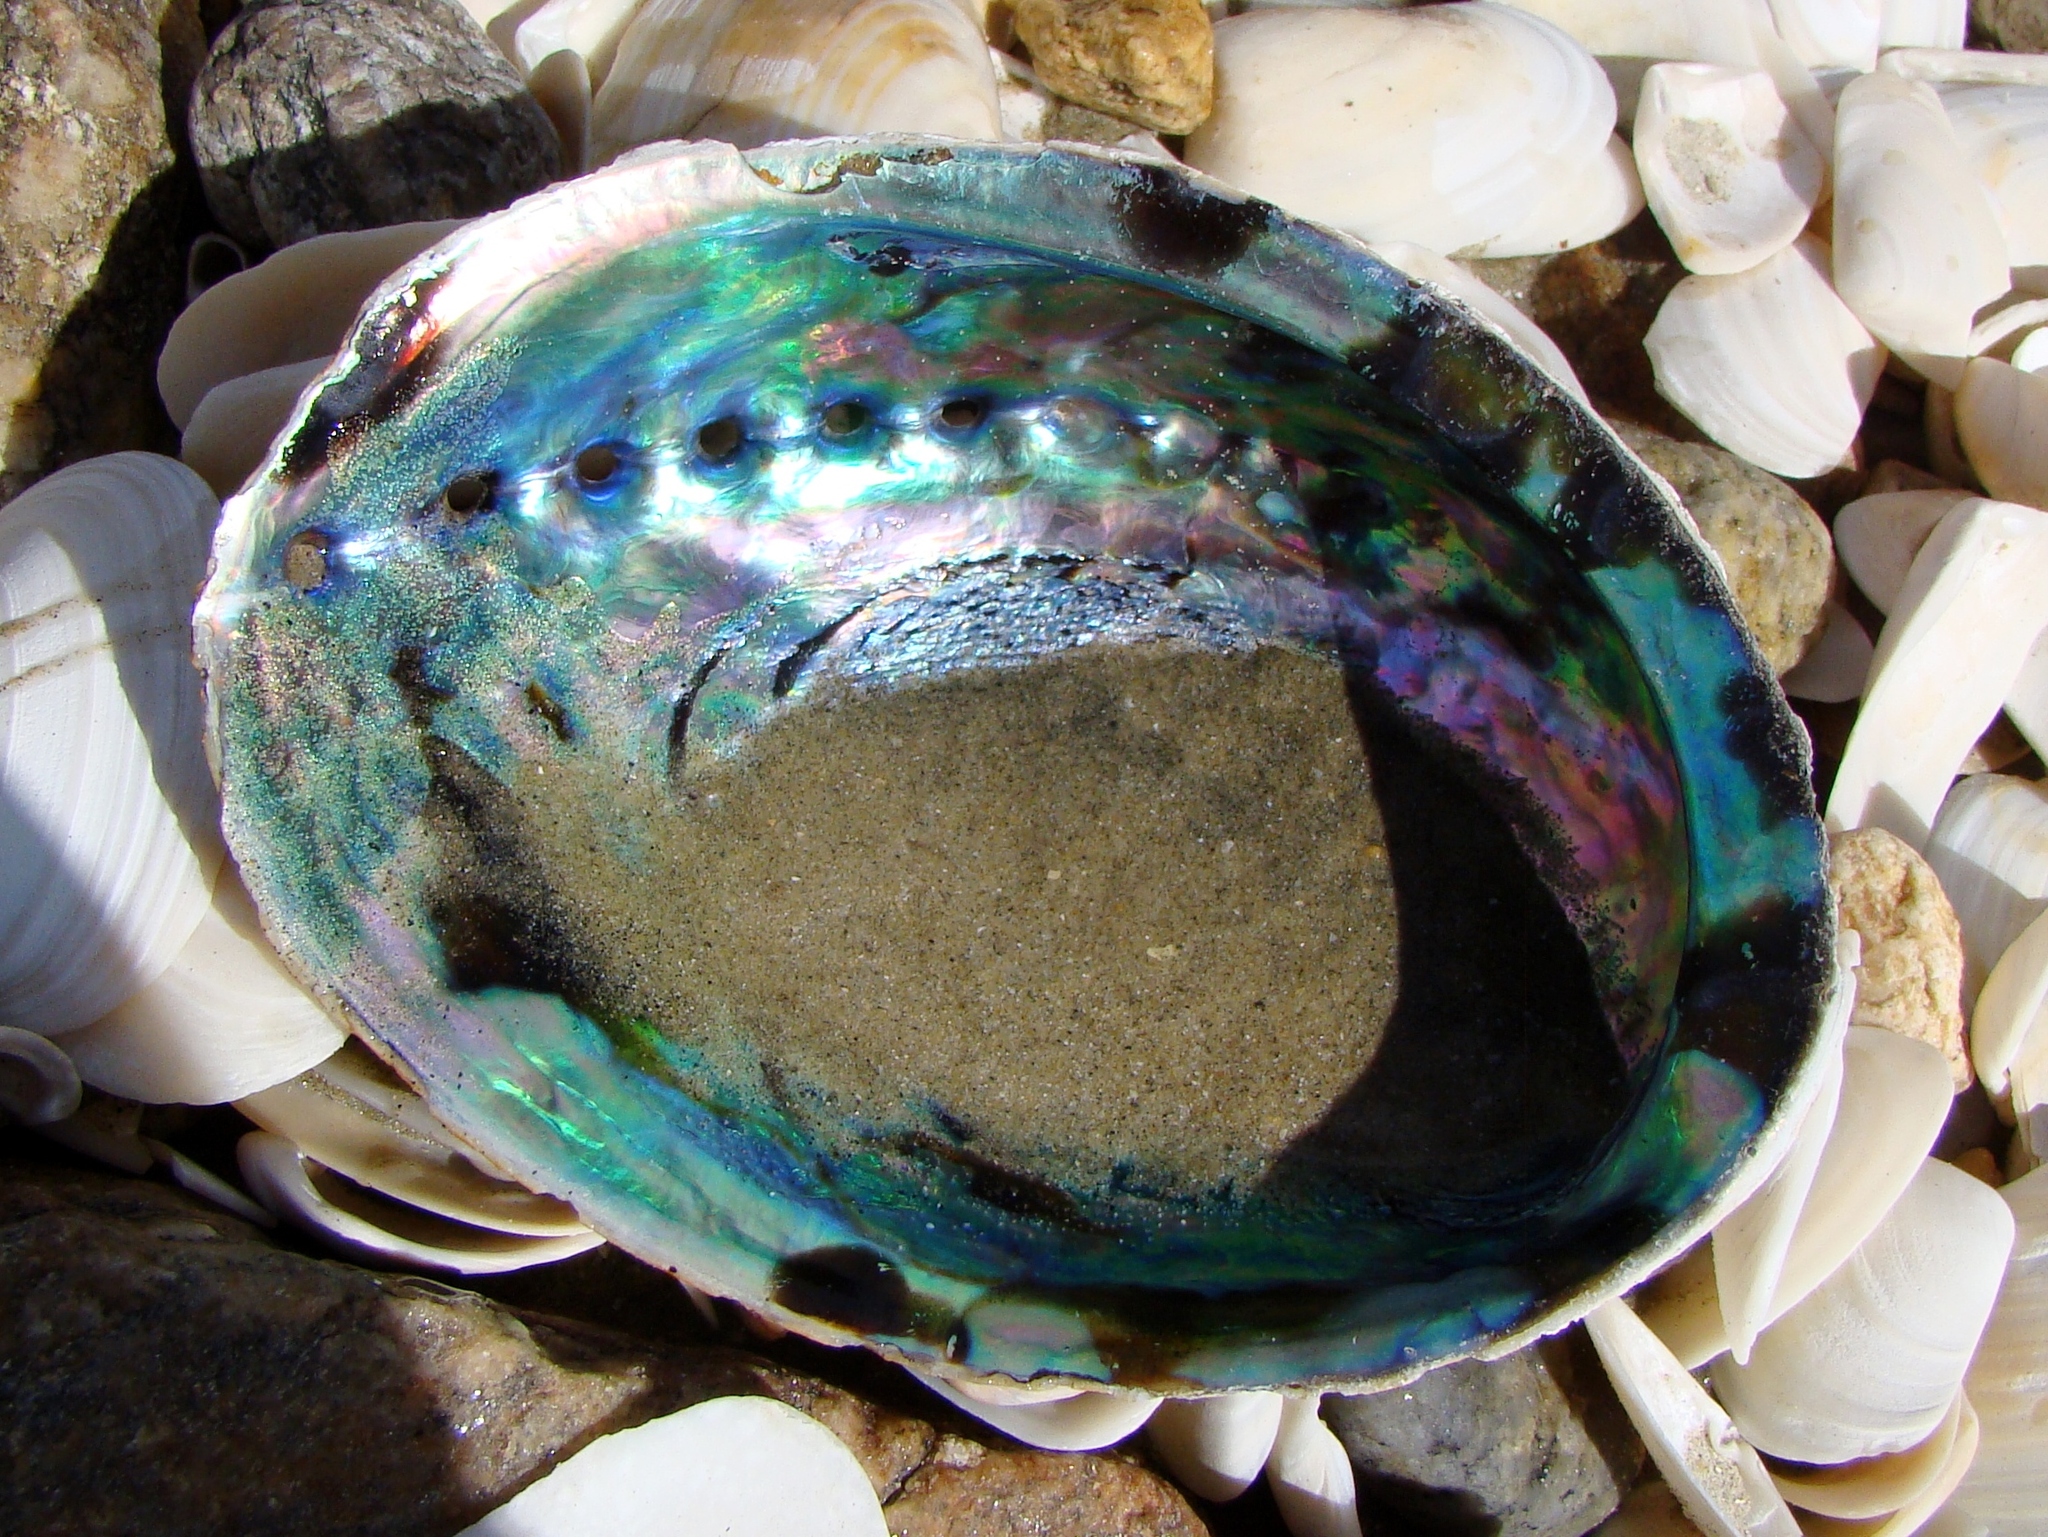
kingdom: Animalia
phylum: Mollusca
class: Gastropoda
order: Lepetellida
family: Haliotidae
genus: Haliotis
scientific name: Haliotis iris
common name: Abalone
